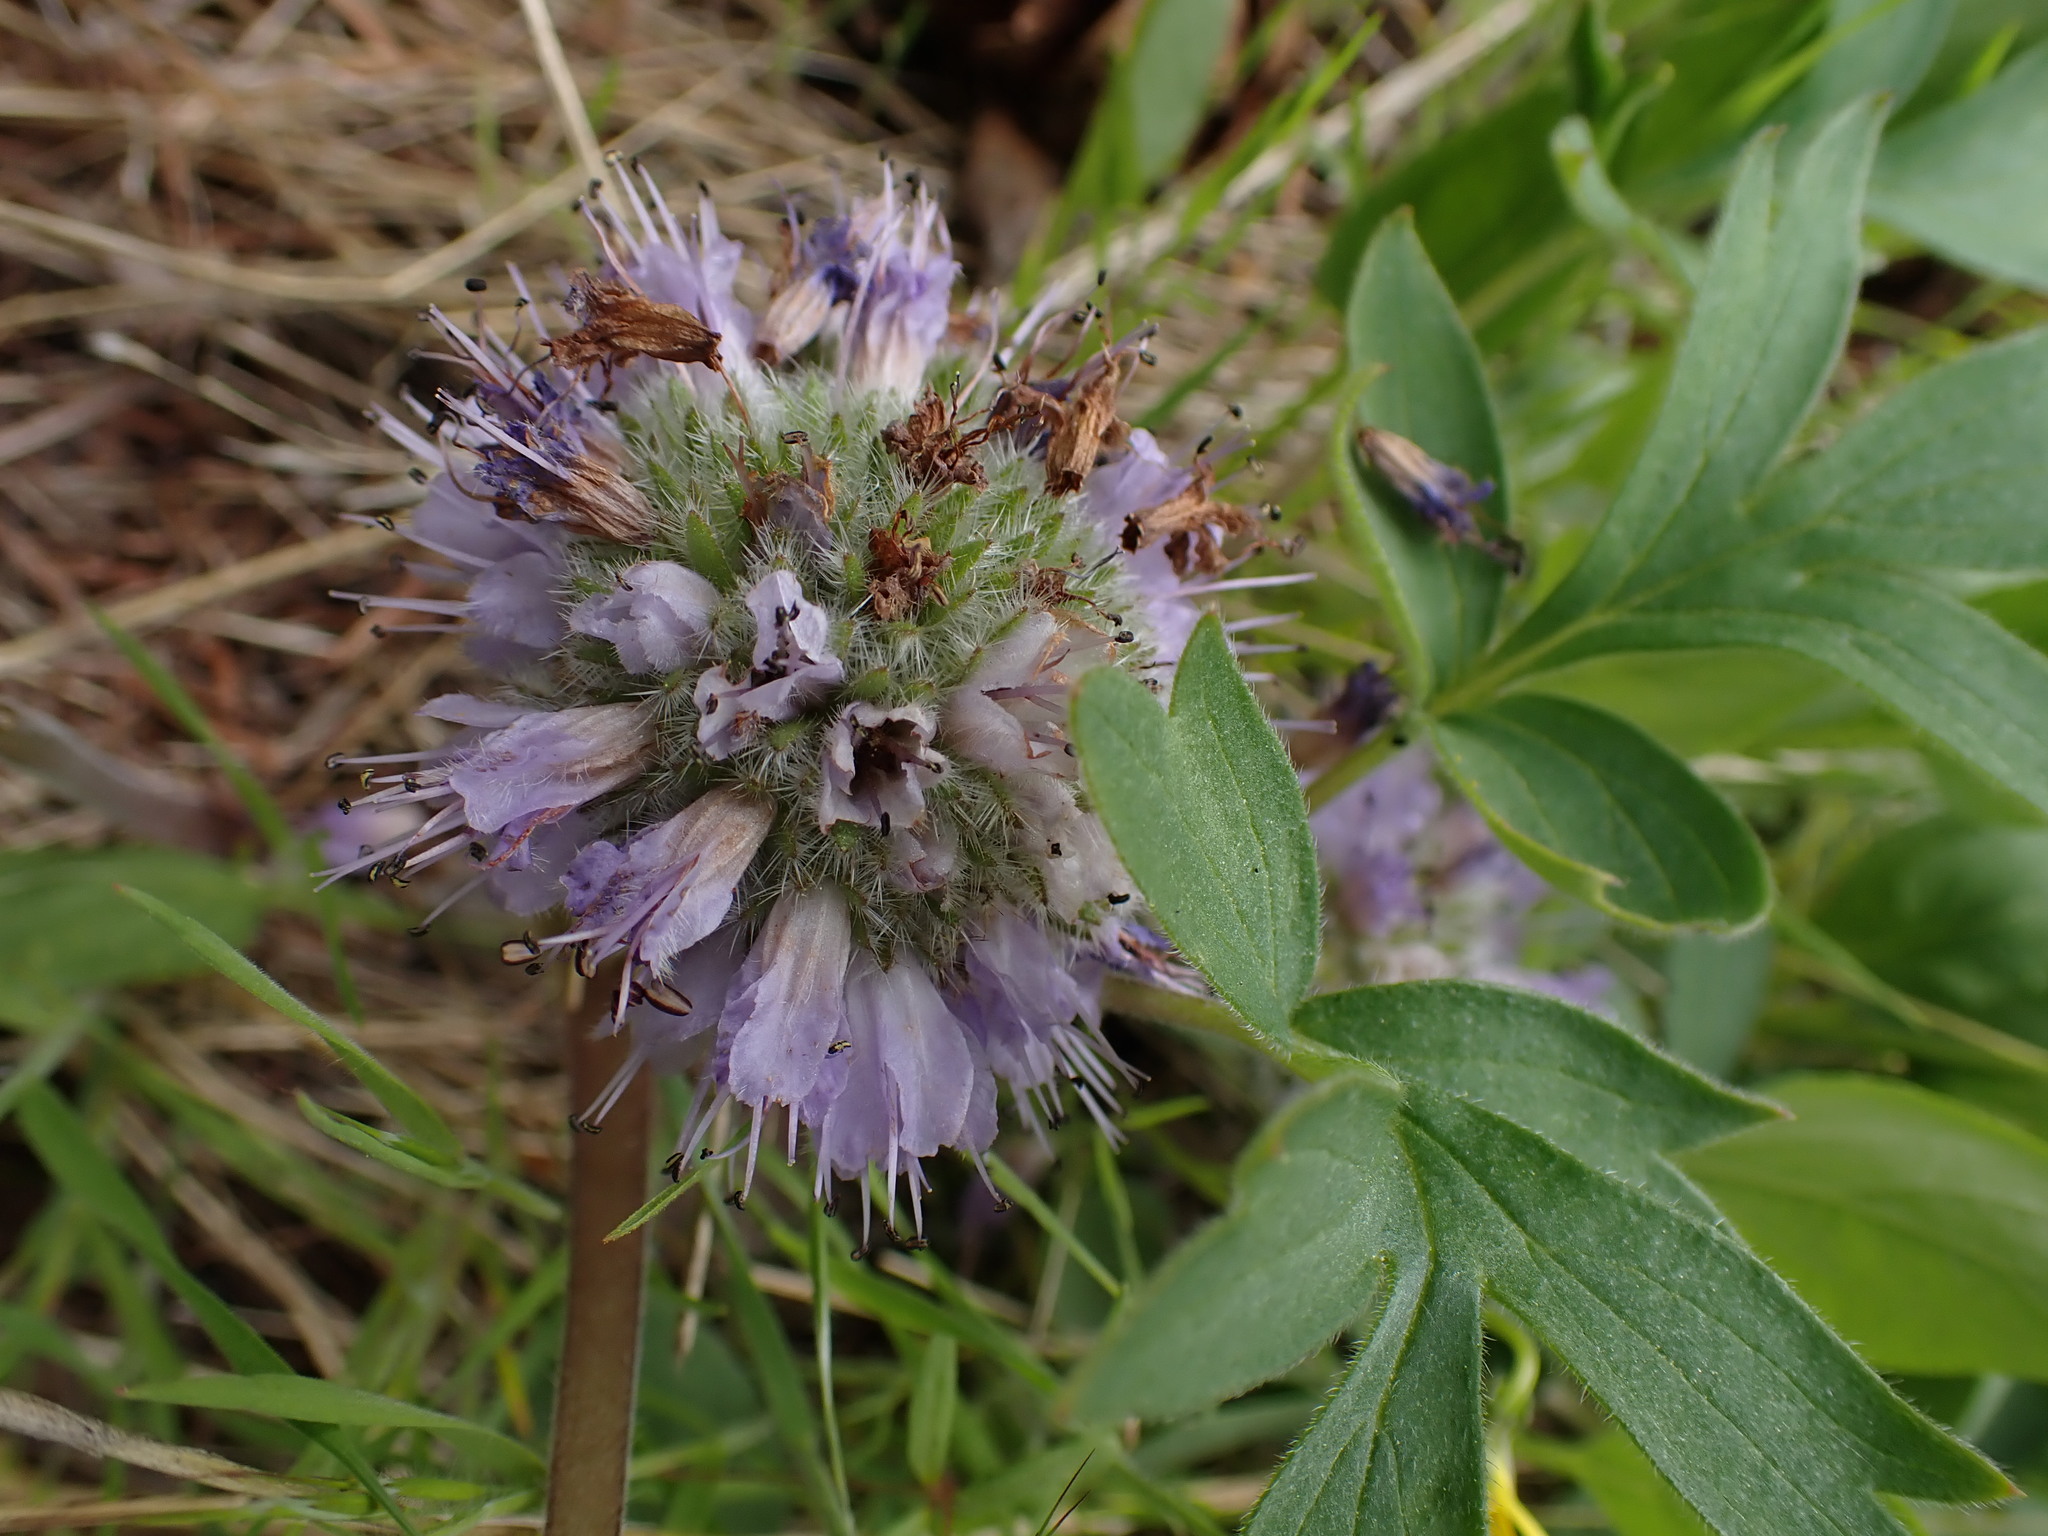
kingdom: Plantae
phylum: Tracheophyta
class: Magnoliopsida
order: Boraginales
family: Hydrophyllaceae
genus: Hydrophyllum
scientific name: Hydrophyllum capitatum
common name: Woollen-breeches
